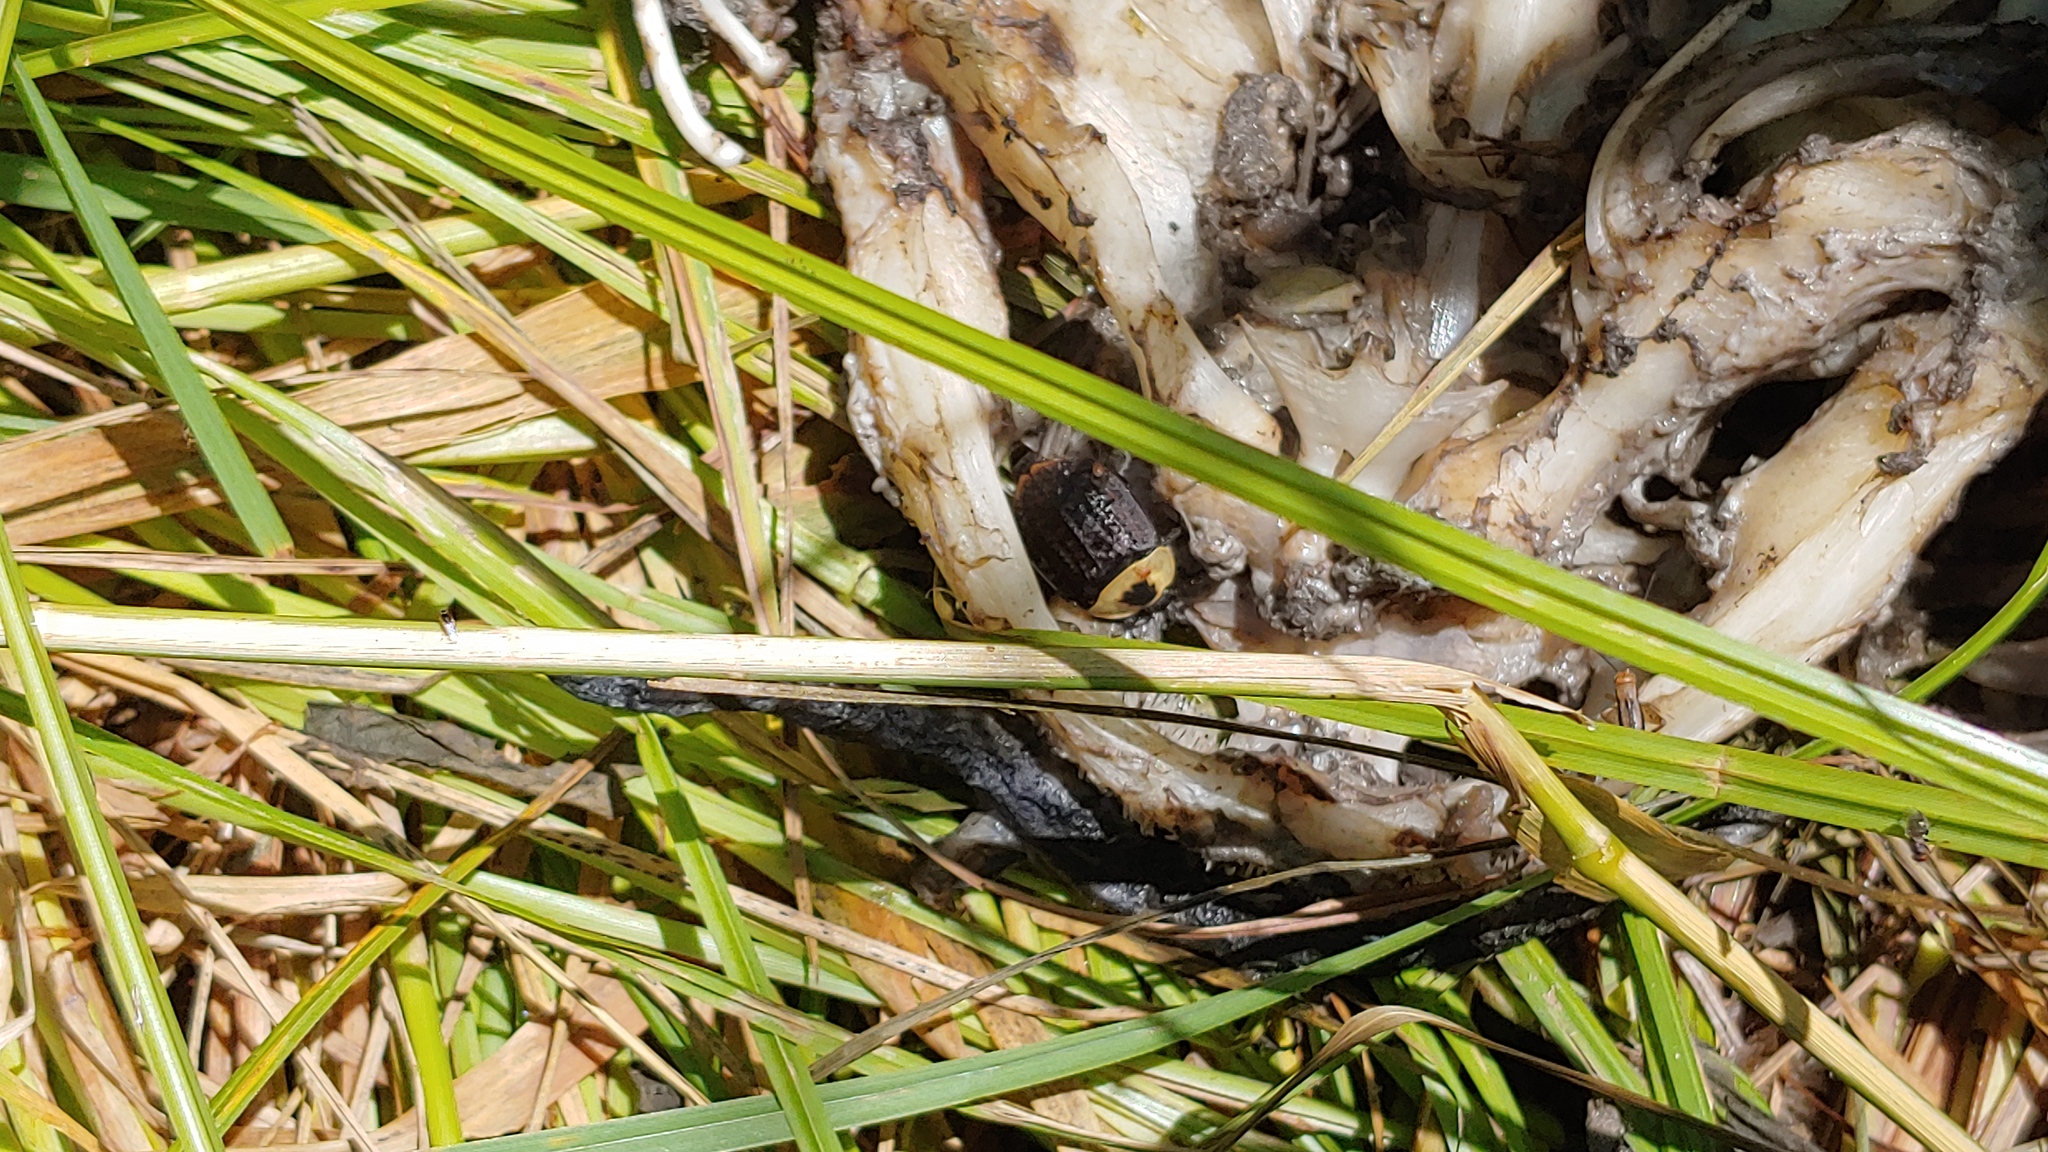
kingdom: Animalia
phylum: Arthropoda
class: Insecta
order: Coleoptera
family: Staphylinidae
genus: Necrophila
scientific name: Necrophila americana
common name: American carrion beetle
